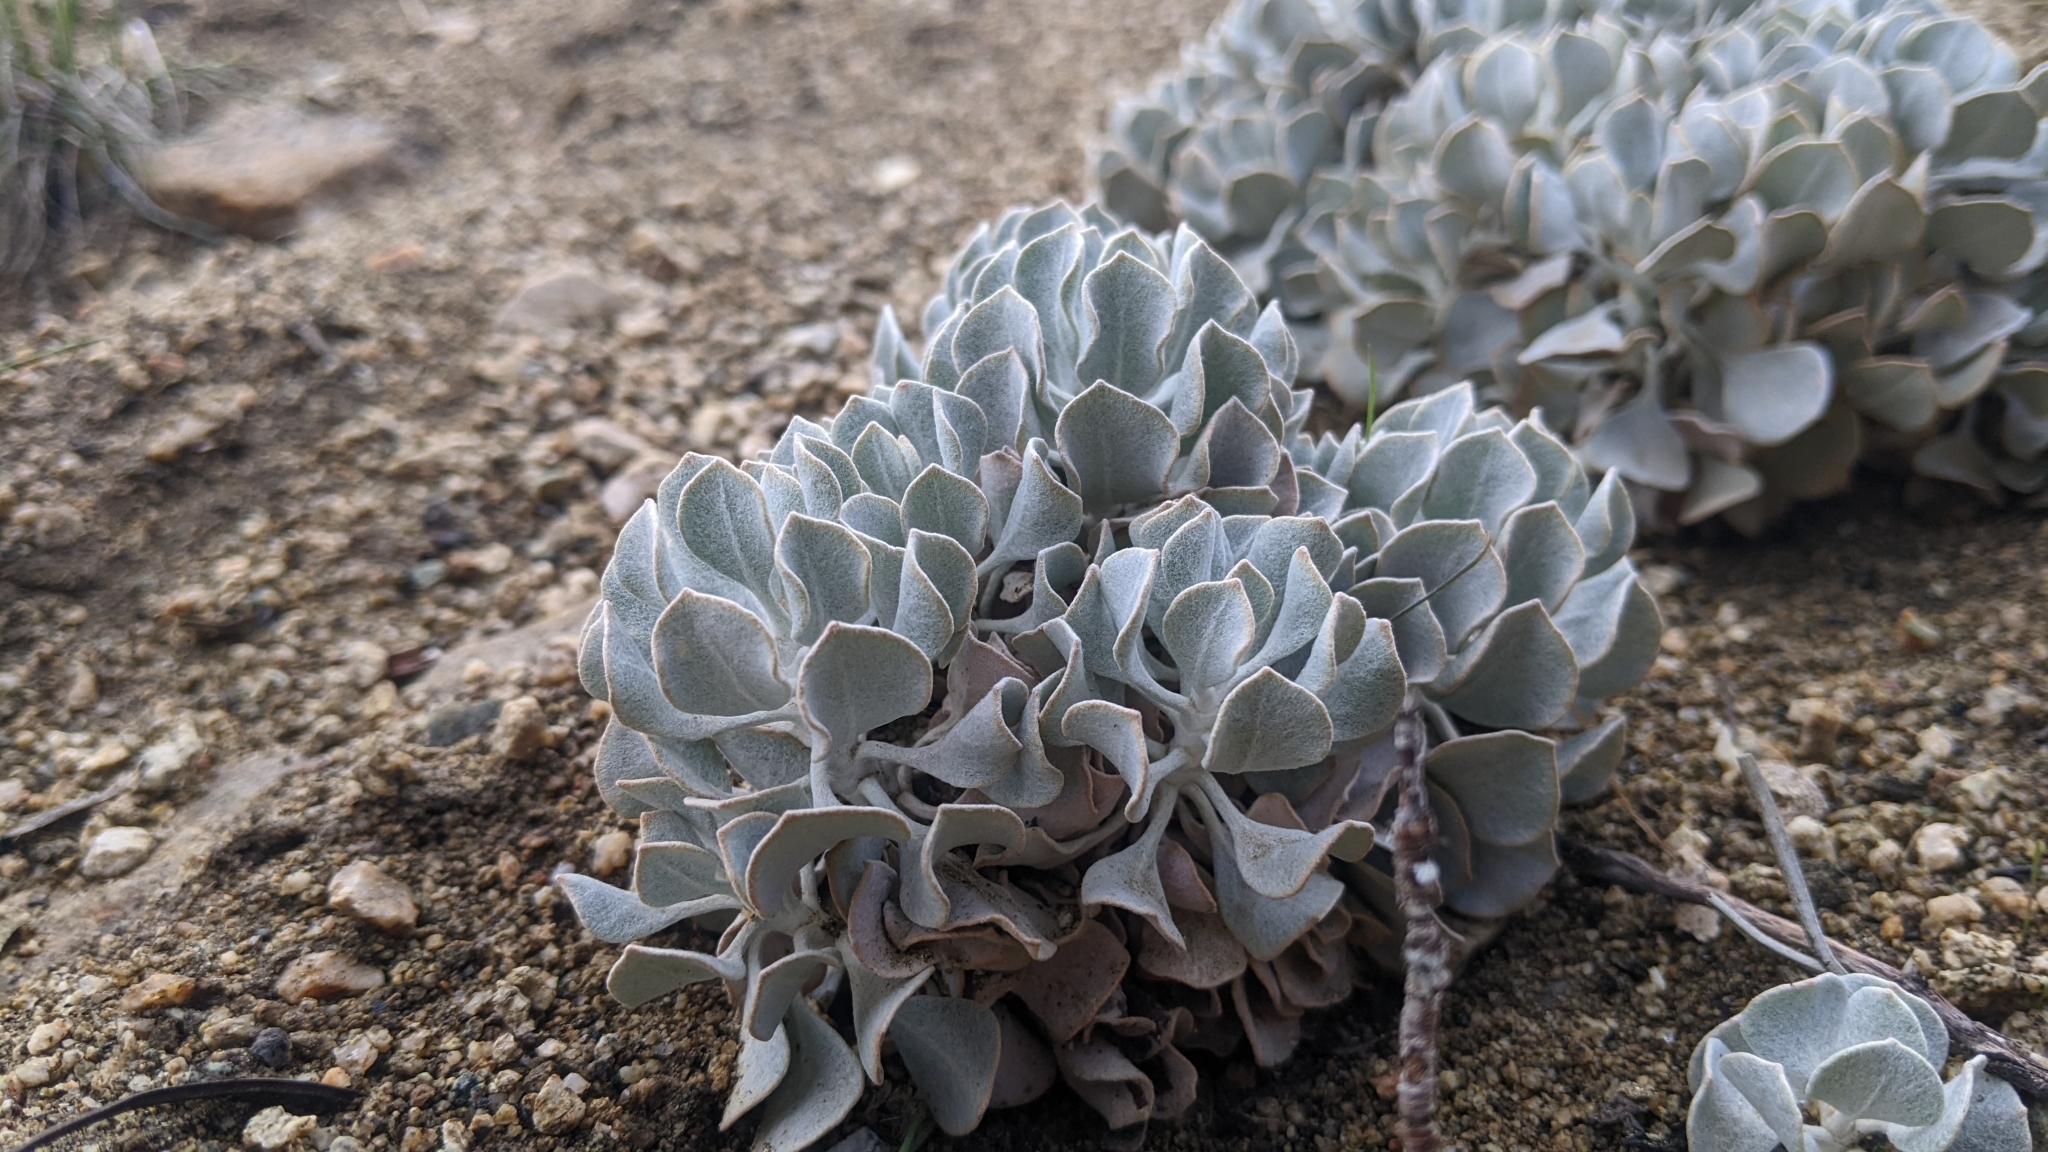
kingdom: Plantae
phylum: Tracheophyta
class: Magnoliopsida
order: Caryophyllales
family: Polygonaceae
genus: Eriogonum
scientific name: Eriogonum saxatile
